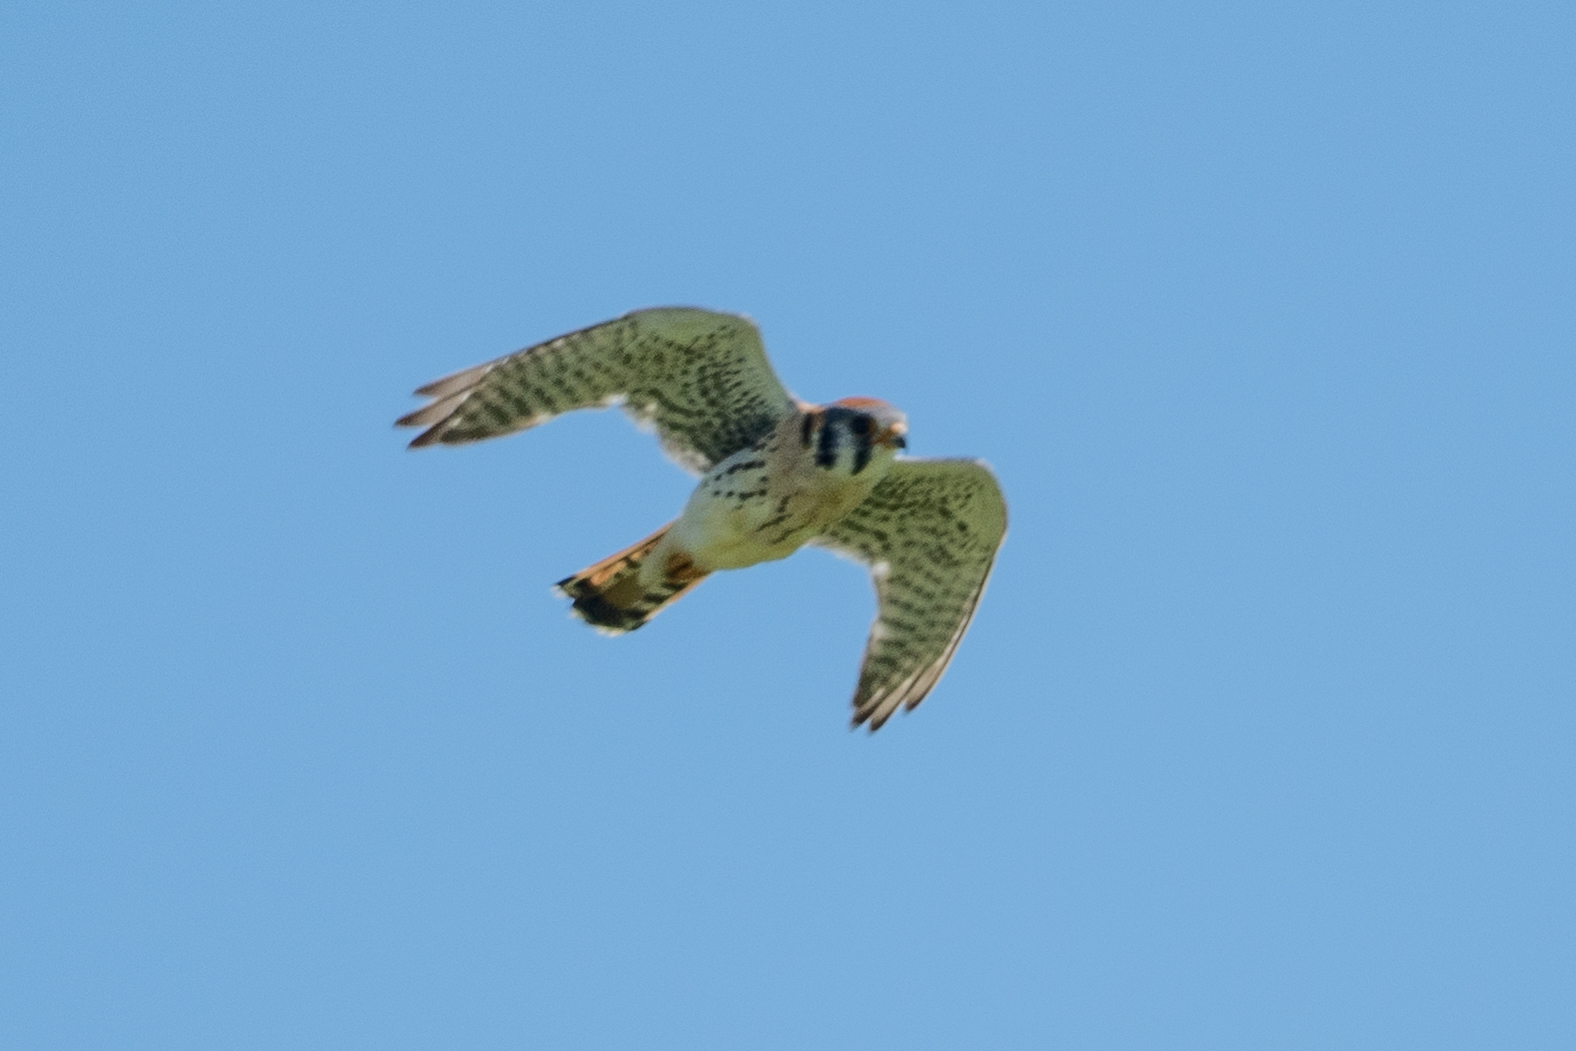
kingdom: Animalia
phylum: Chordata
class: Aves
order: Falconiformes
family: Falconidae
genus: Falco
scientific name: Falco sparverius
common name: American kestrel
